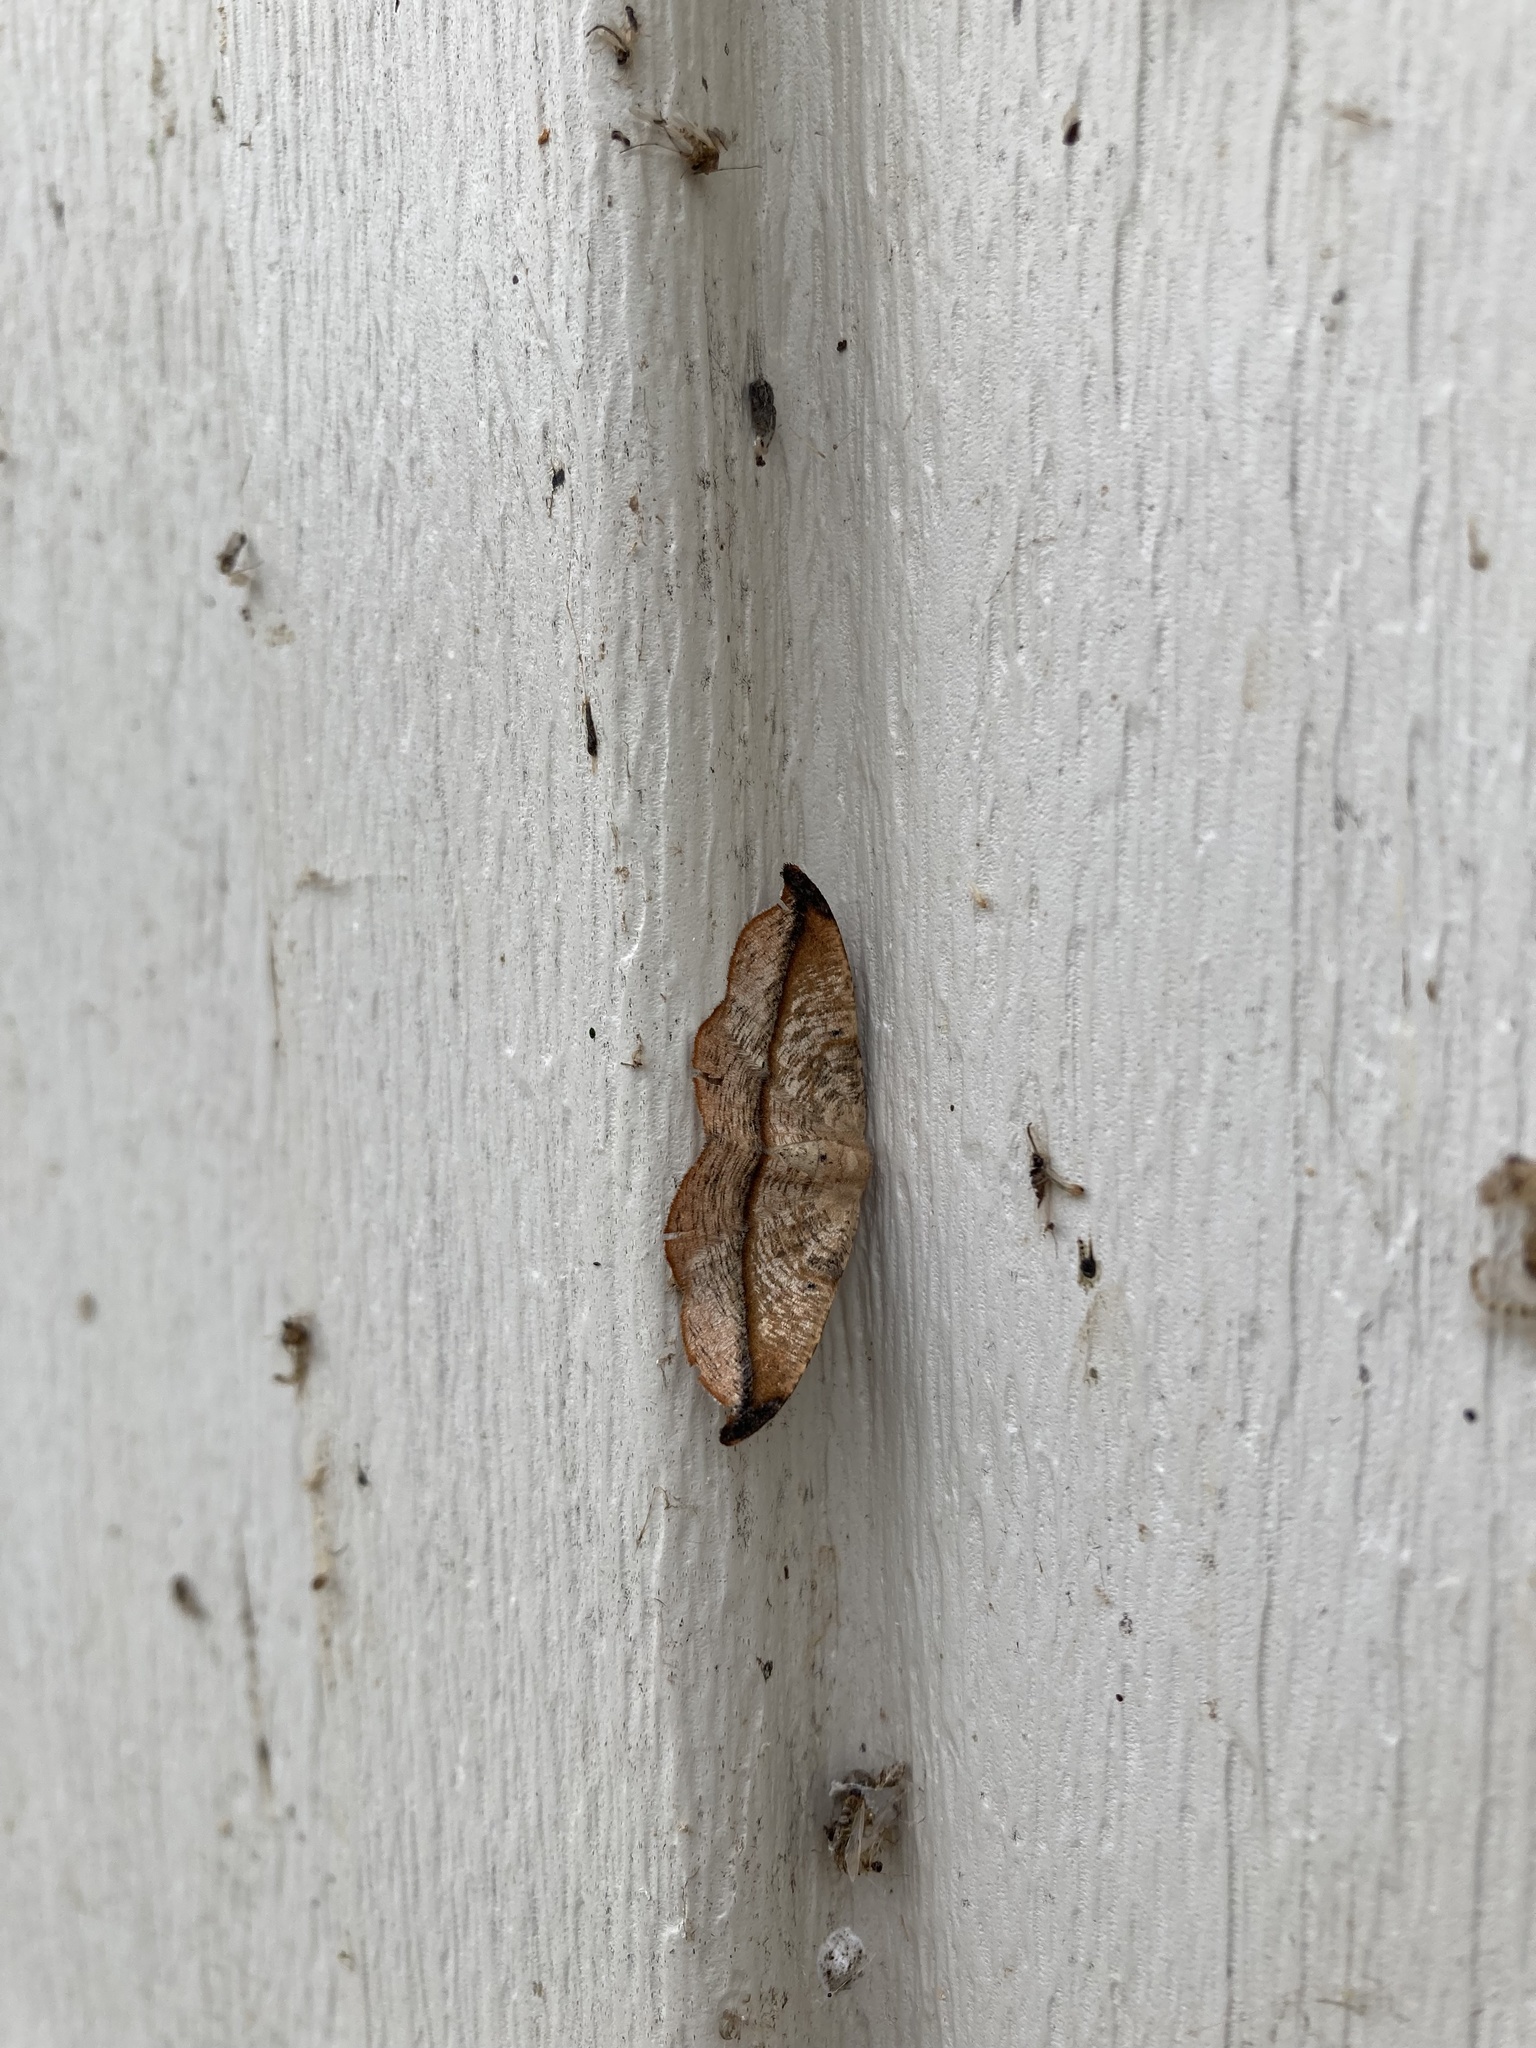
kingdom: Animalia
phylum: Arthropoda
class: Insecta
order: Lepidoptera
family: Geometridae
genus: Patalene
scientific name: Patalene olyzonaria
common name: Juniper geometer moth
